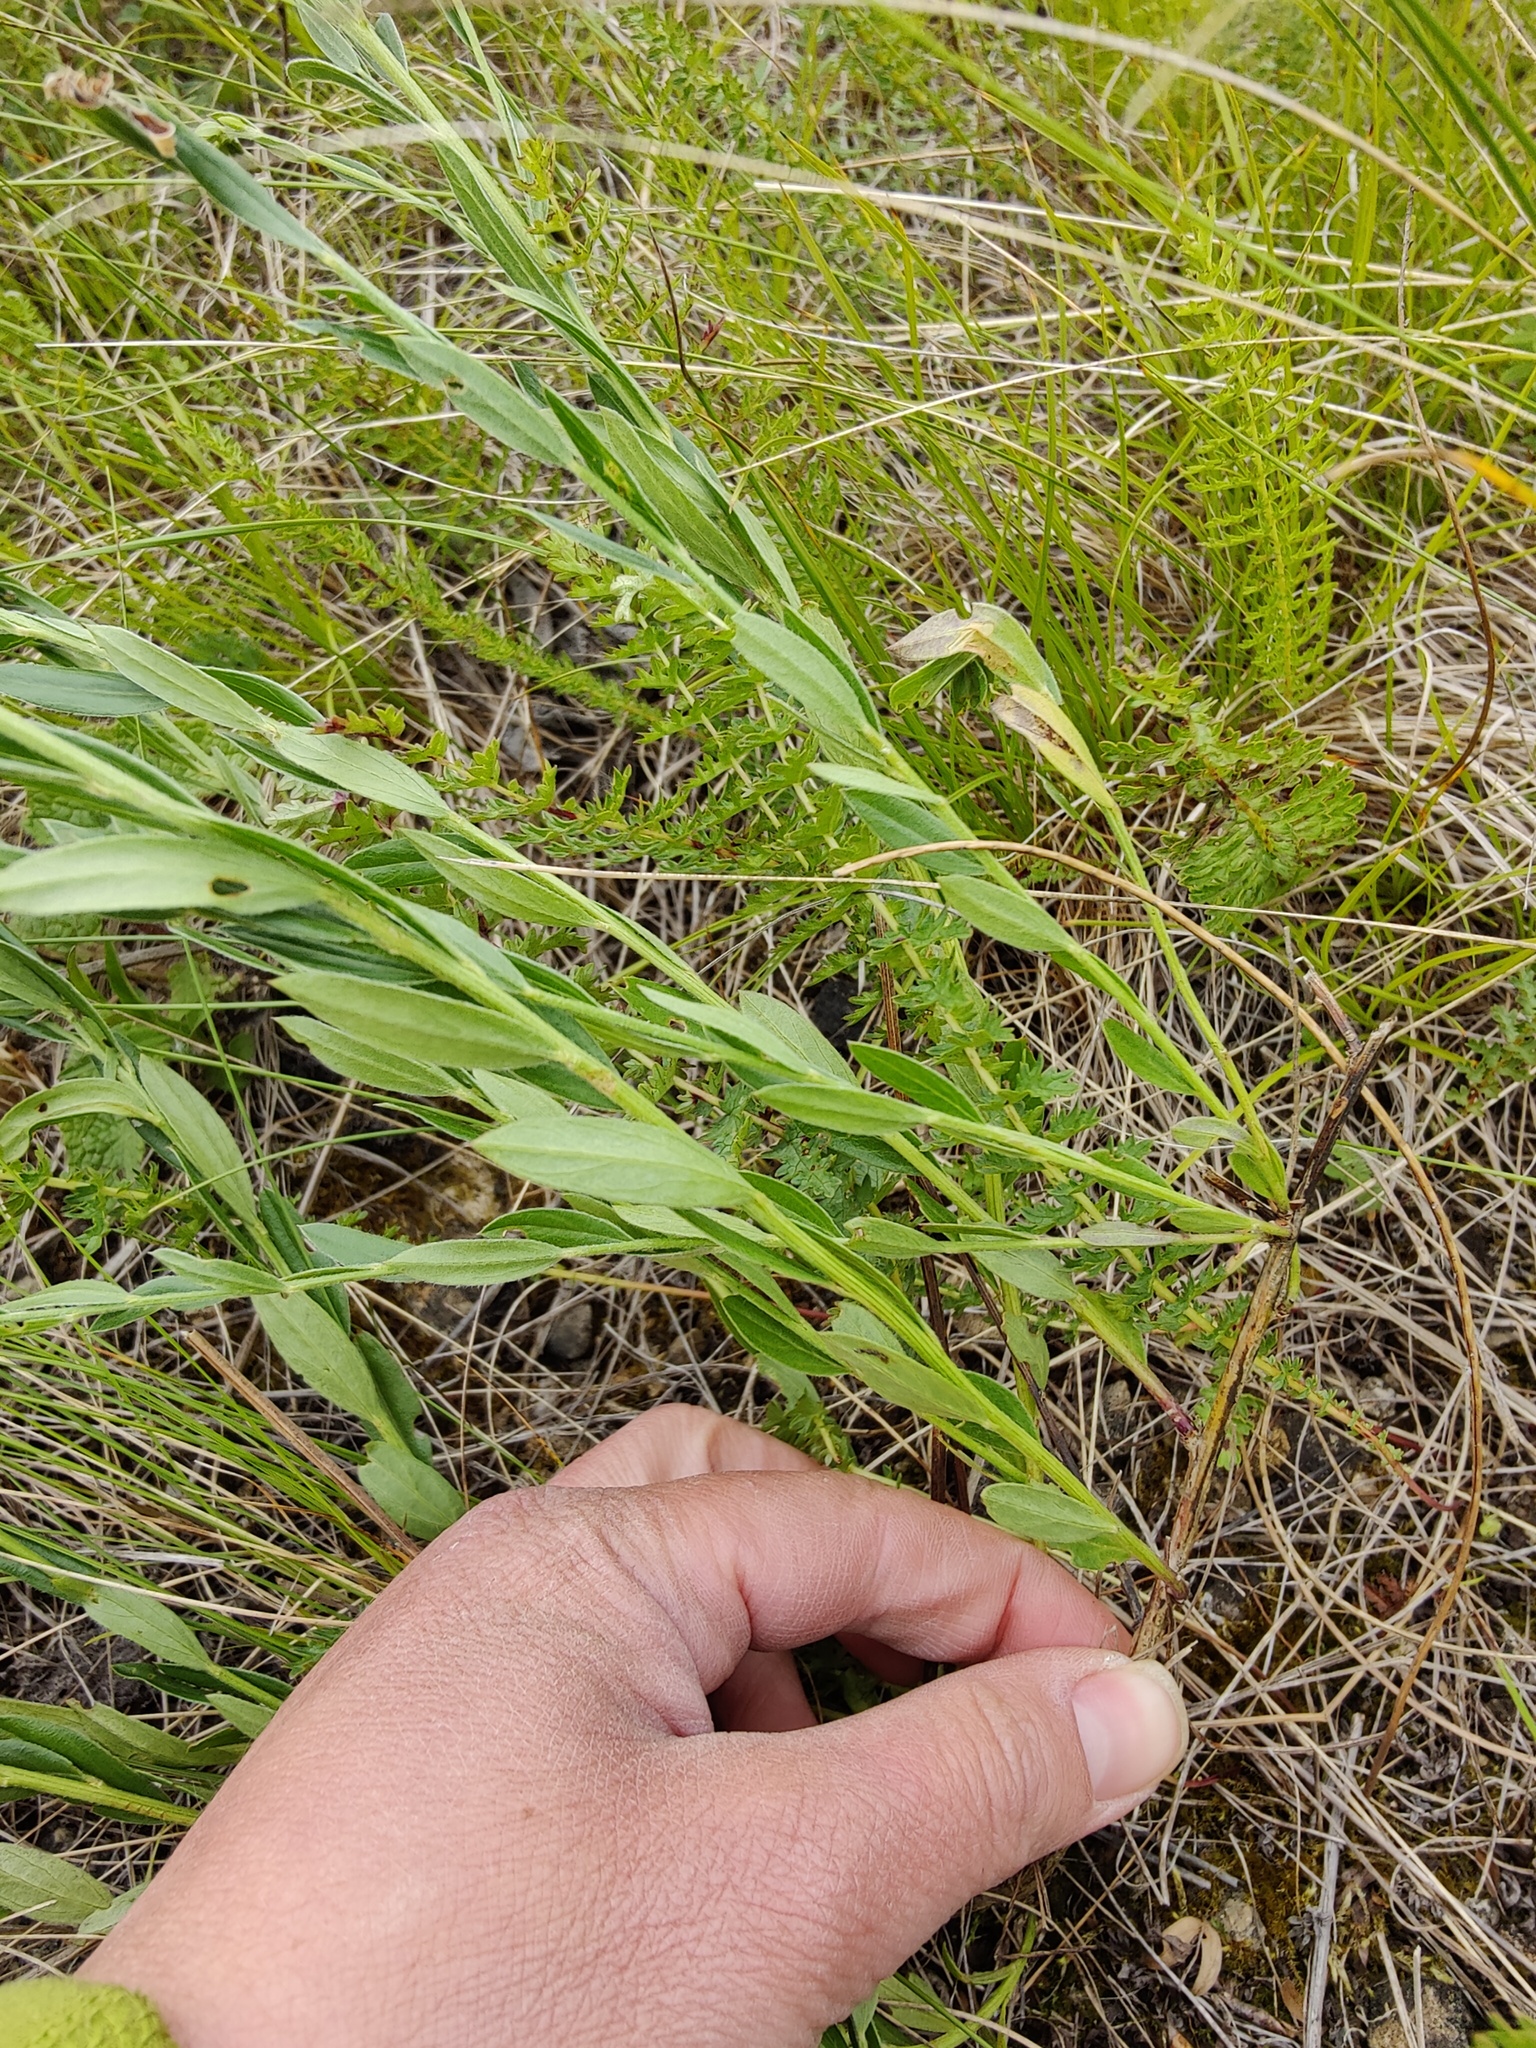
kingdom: Plantae
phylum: Tracheophyta
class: Magnoliopsida
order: Fabales
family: Fabaceae
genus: Genista
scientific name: Genista tinctoria
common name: Dyer's greenweed
